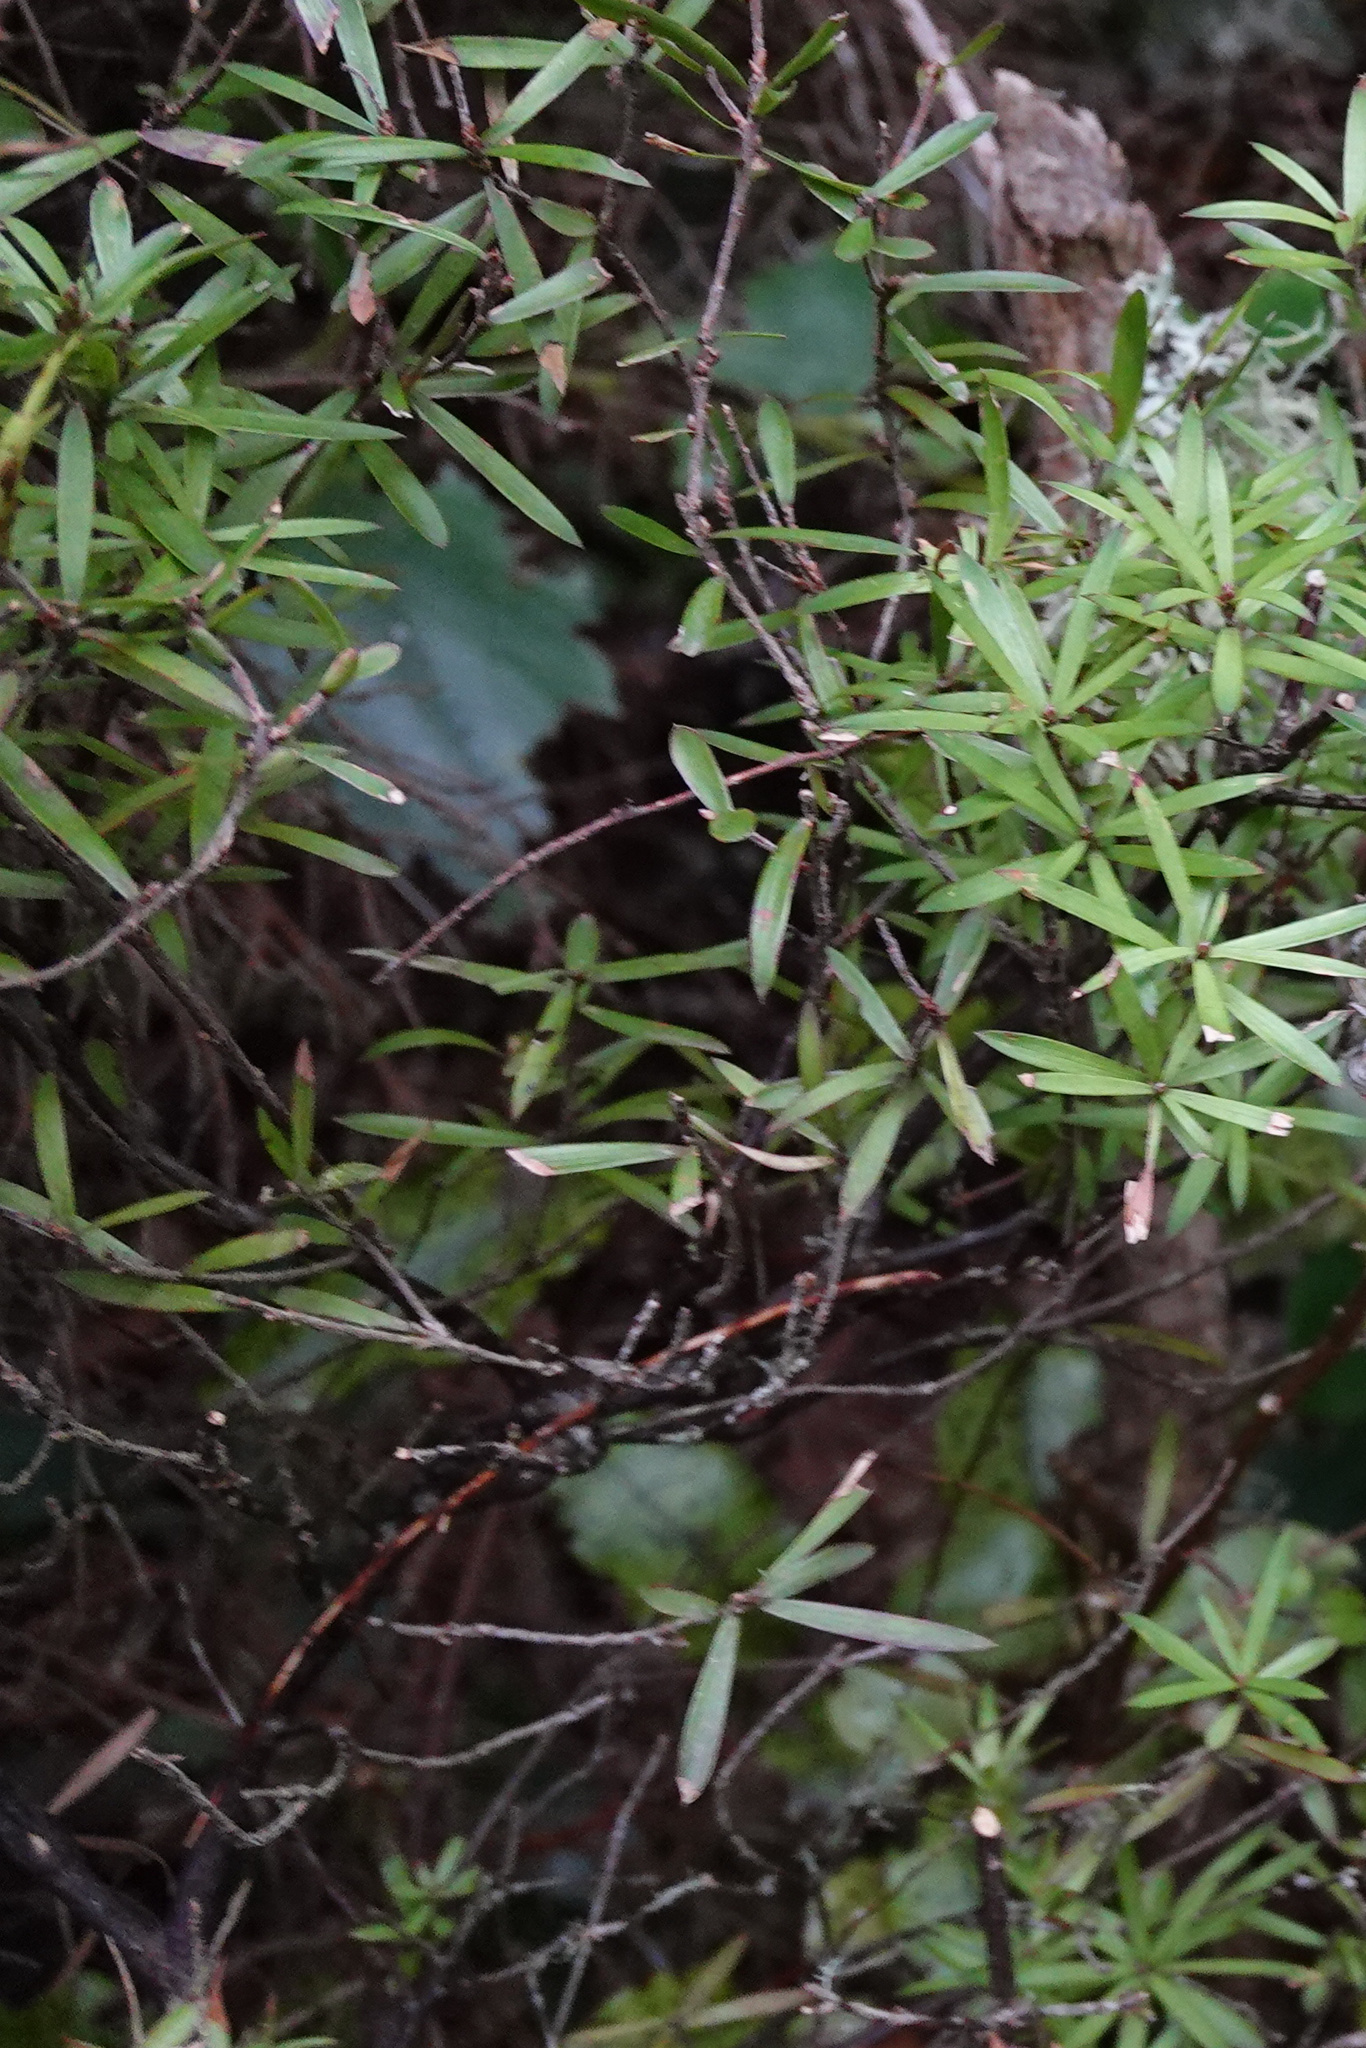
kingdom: Plantae
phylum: Tracheophyta
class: Magnoliopsida
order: Ericales
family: Ericaceae
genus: Leucopogon
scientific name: Leucopogon fasciculatus
